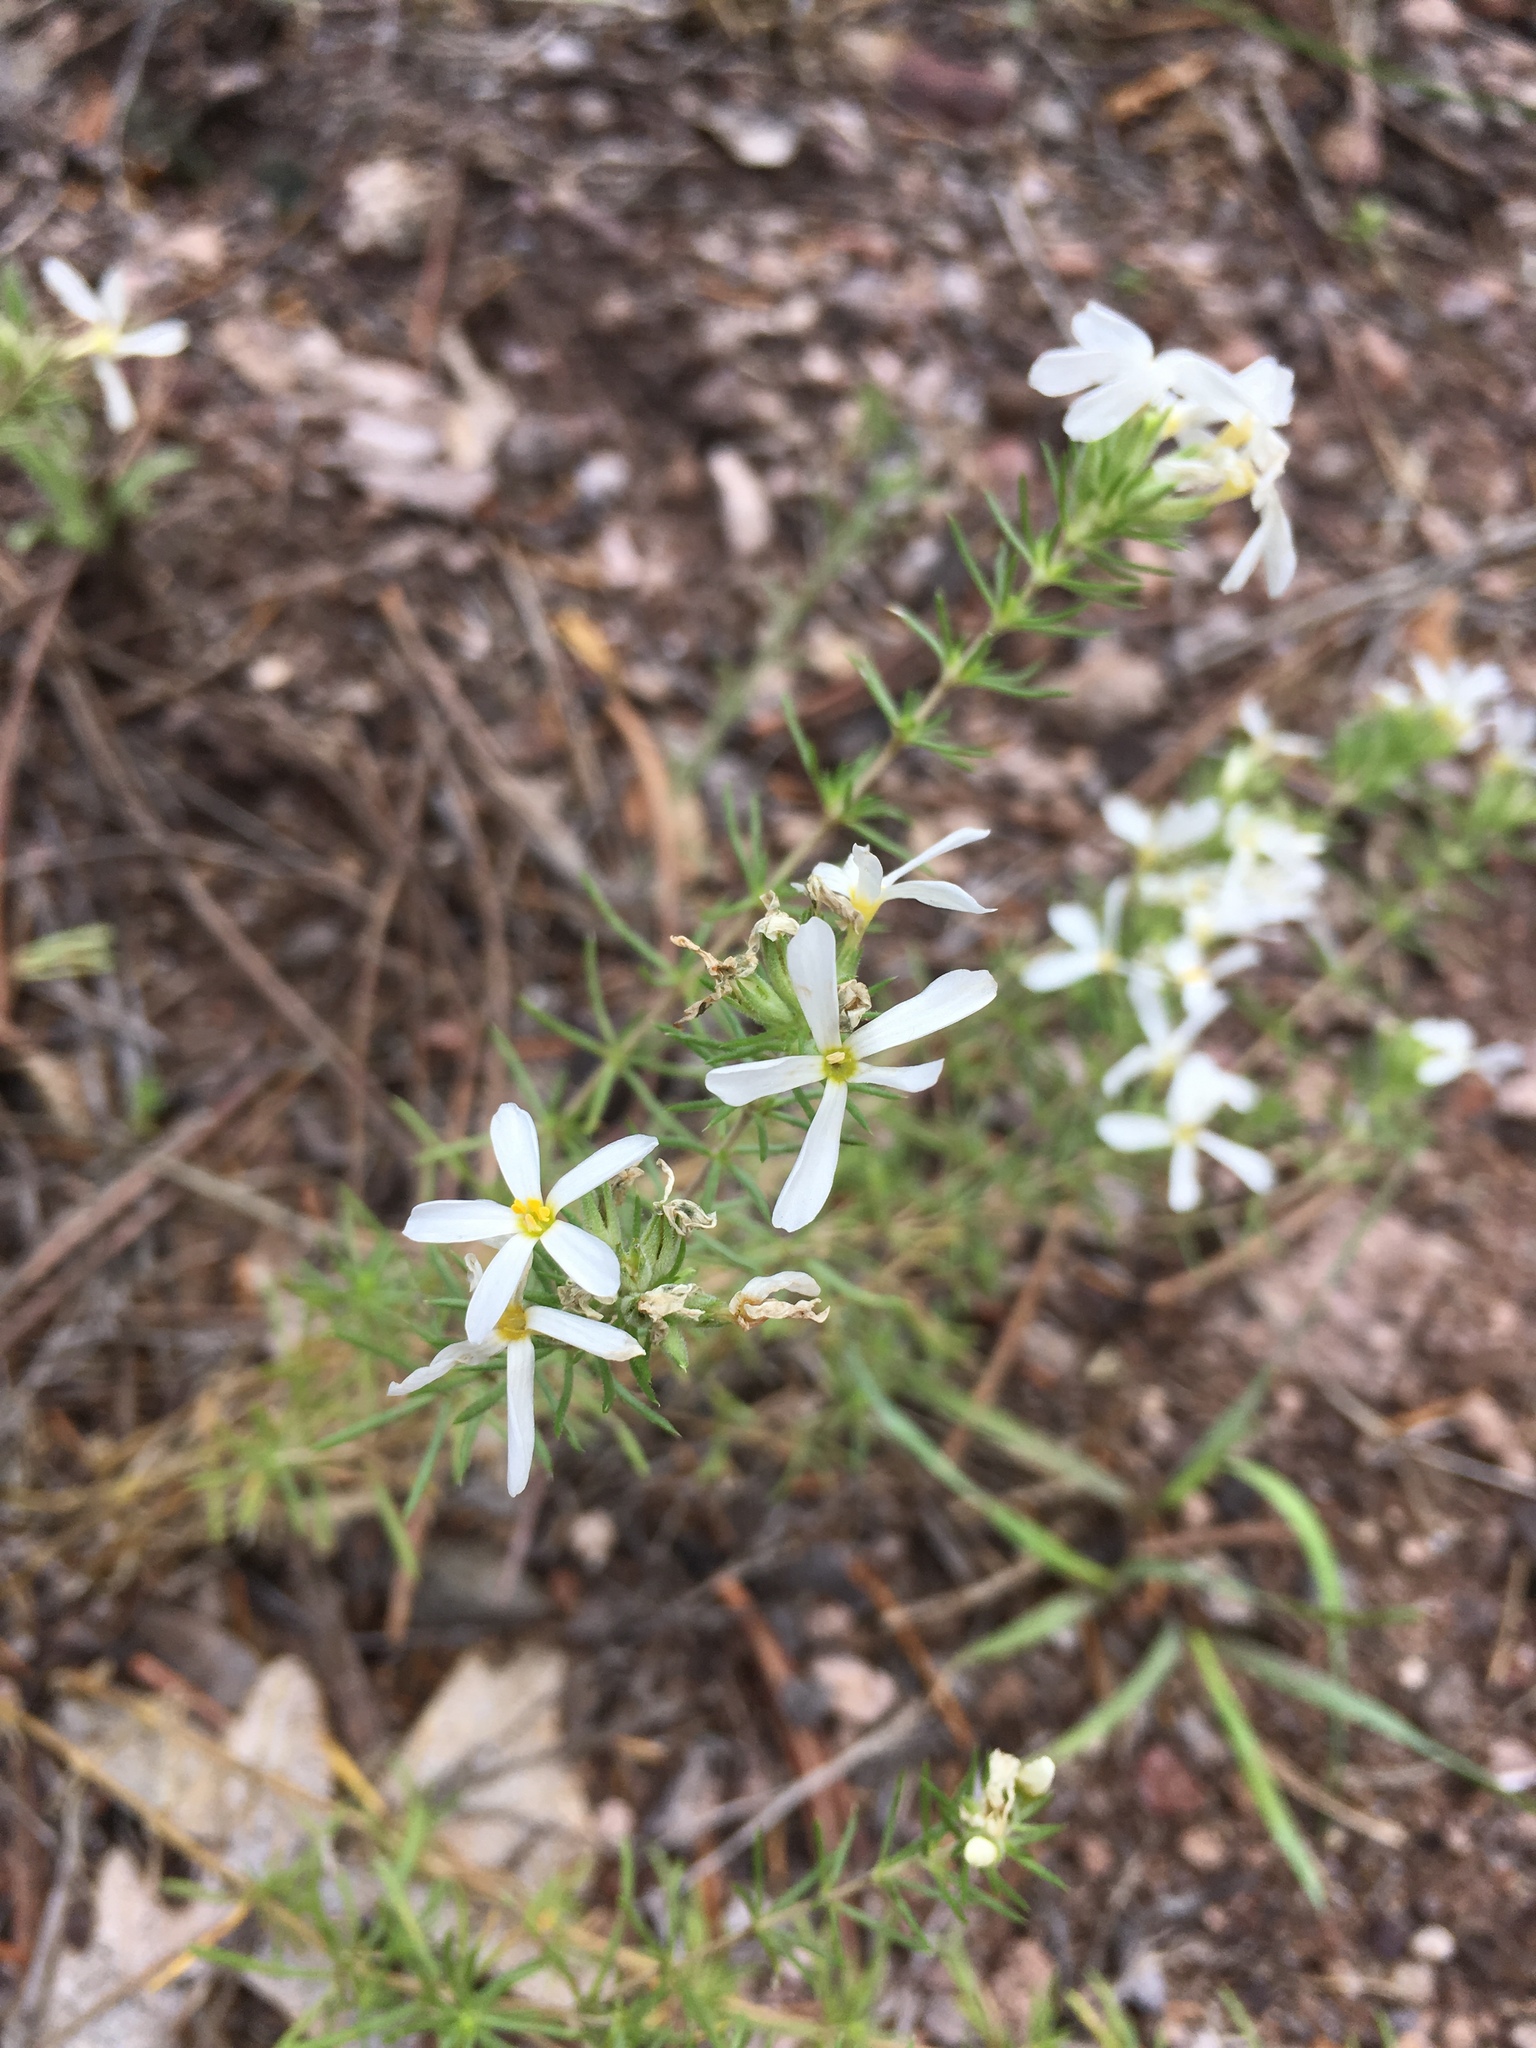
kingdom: Plantae
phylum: Tracheophyta
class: Magnoliopsida
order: Ericales
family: Polemoniaceae
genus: Leptosiphon
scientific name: Leptosiphon nuttallii
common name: Nuttall's linanthus
